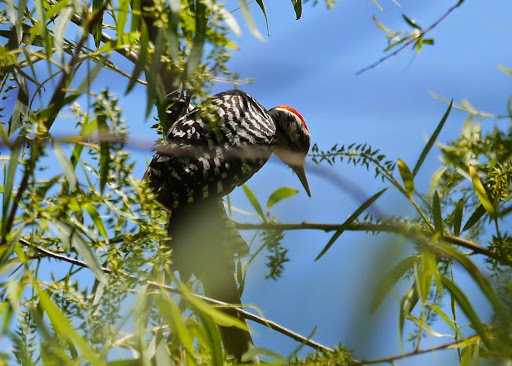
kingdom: Animalia
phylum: Chordata
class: Aves
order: Piciformes
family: Picidae
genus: Dryobates
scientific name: Dryobates scalaris
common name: Ladder-backed woodpecker
